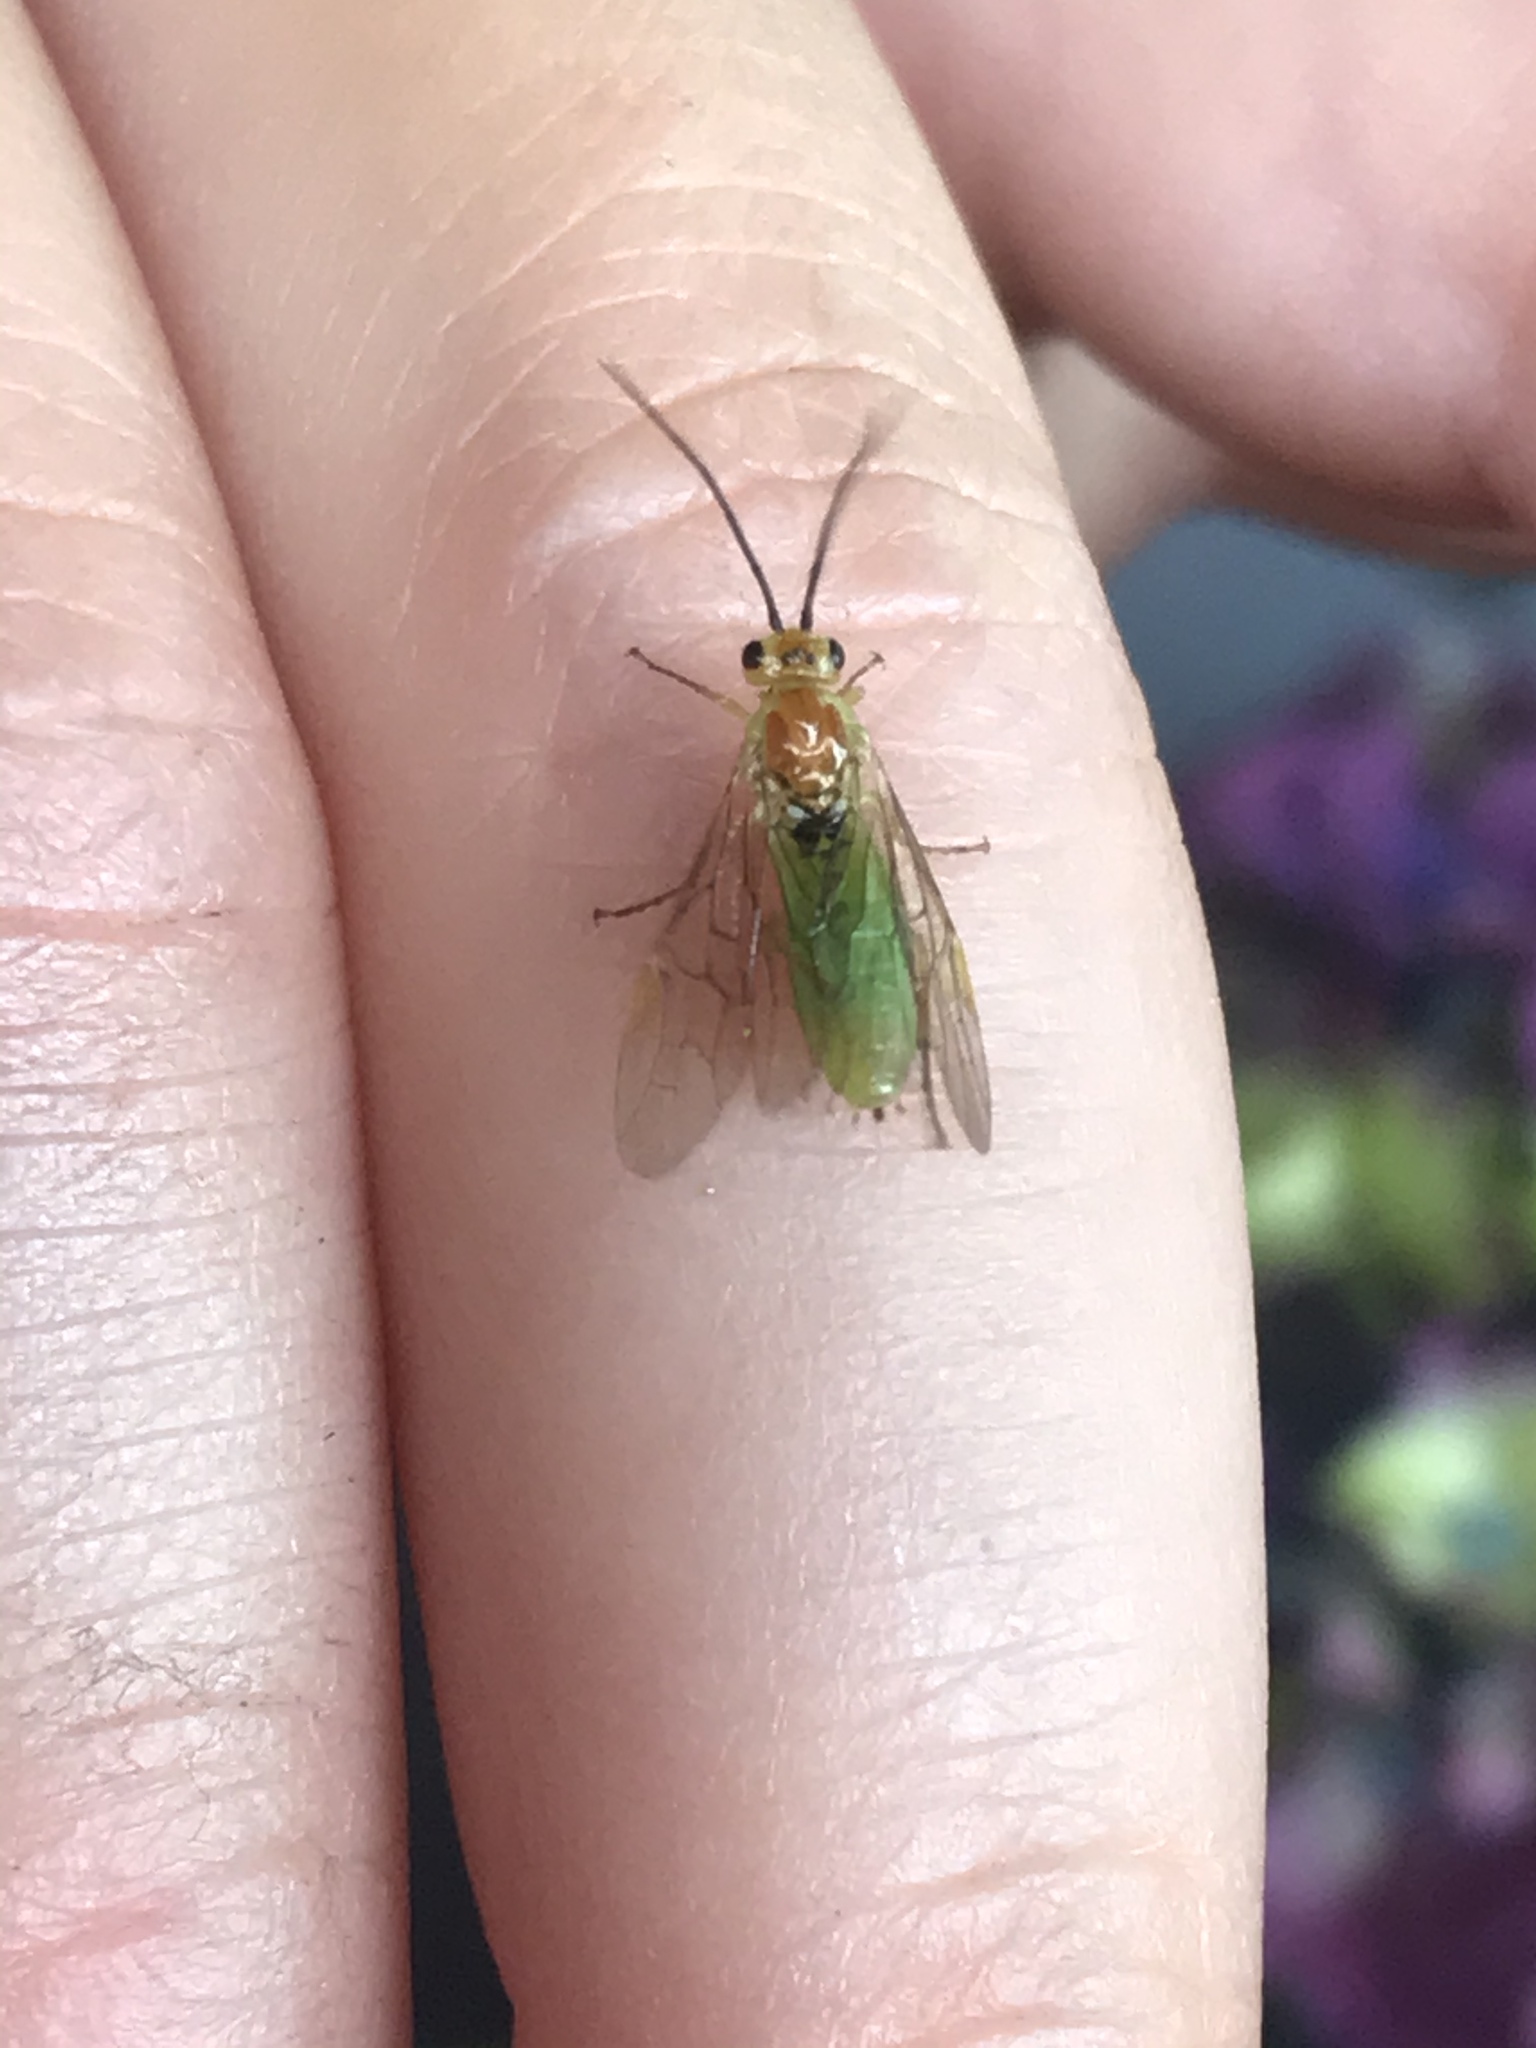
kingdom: Animalia
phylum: Arthropoda
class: Insecta
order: Hymenoptera
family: Tenthredinidae
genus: Nematus
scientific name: Nematus respondens
